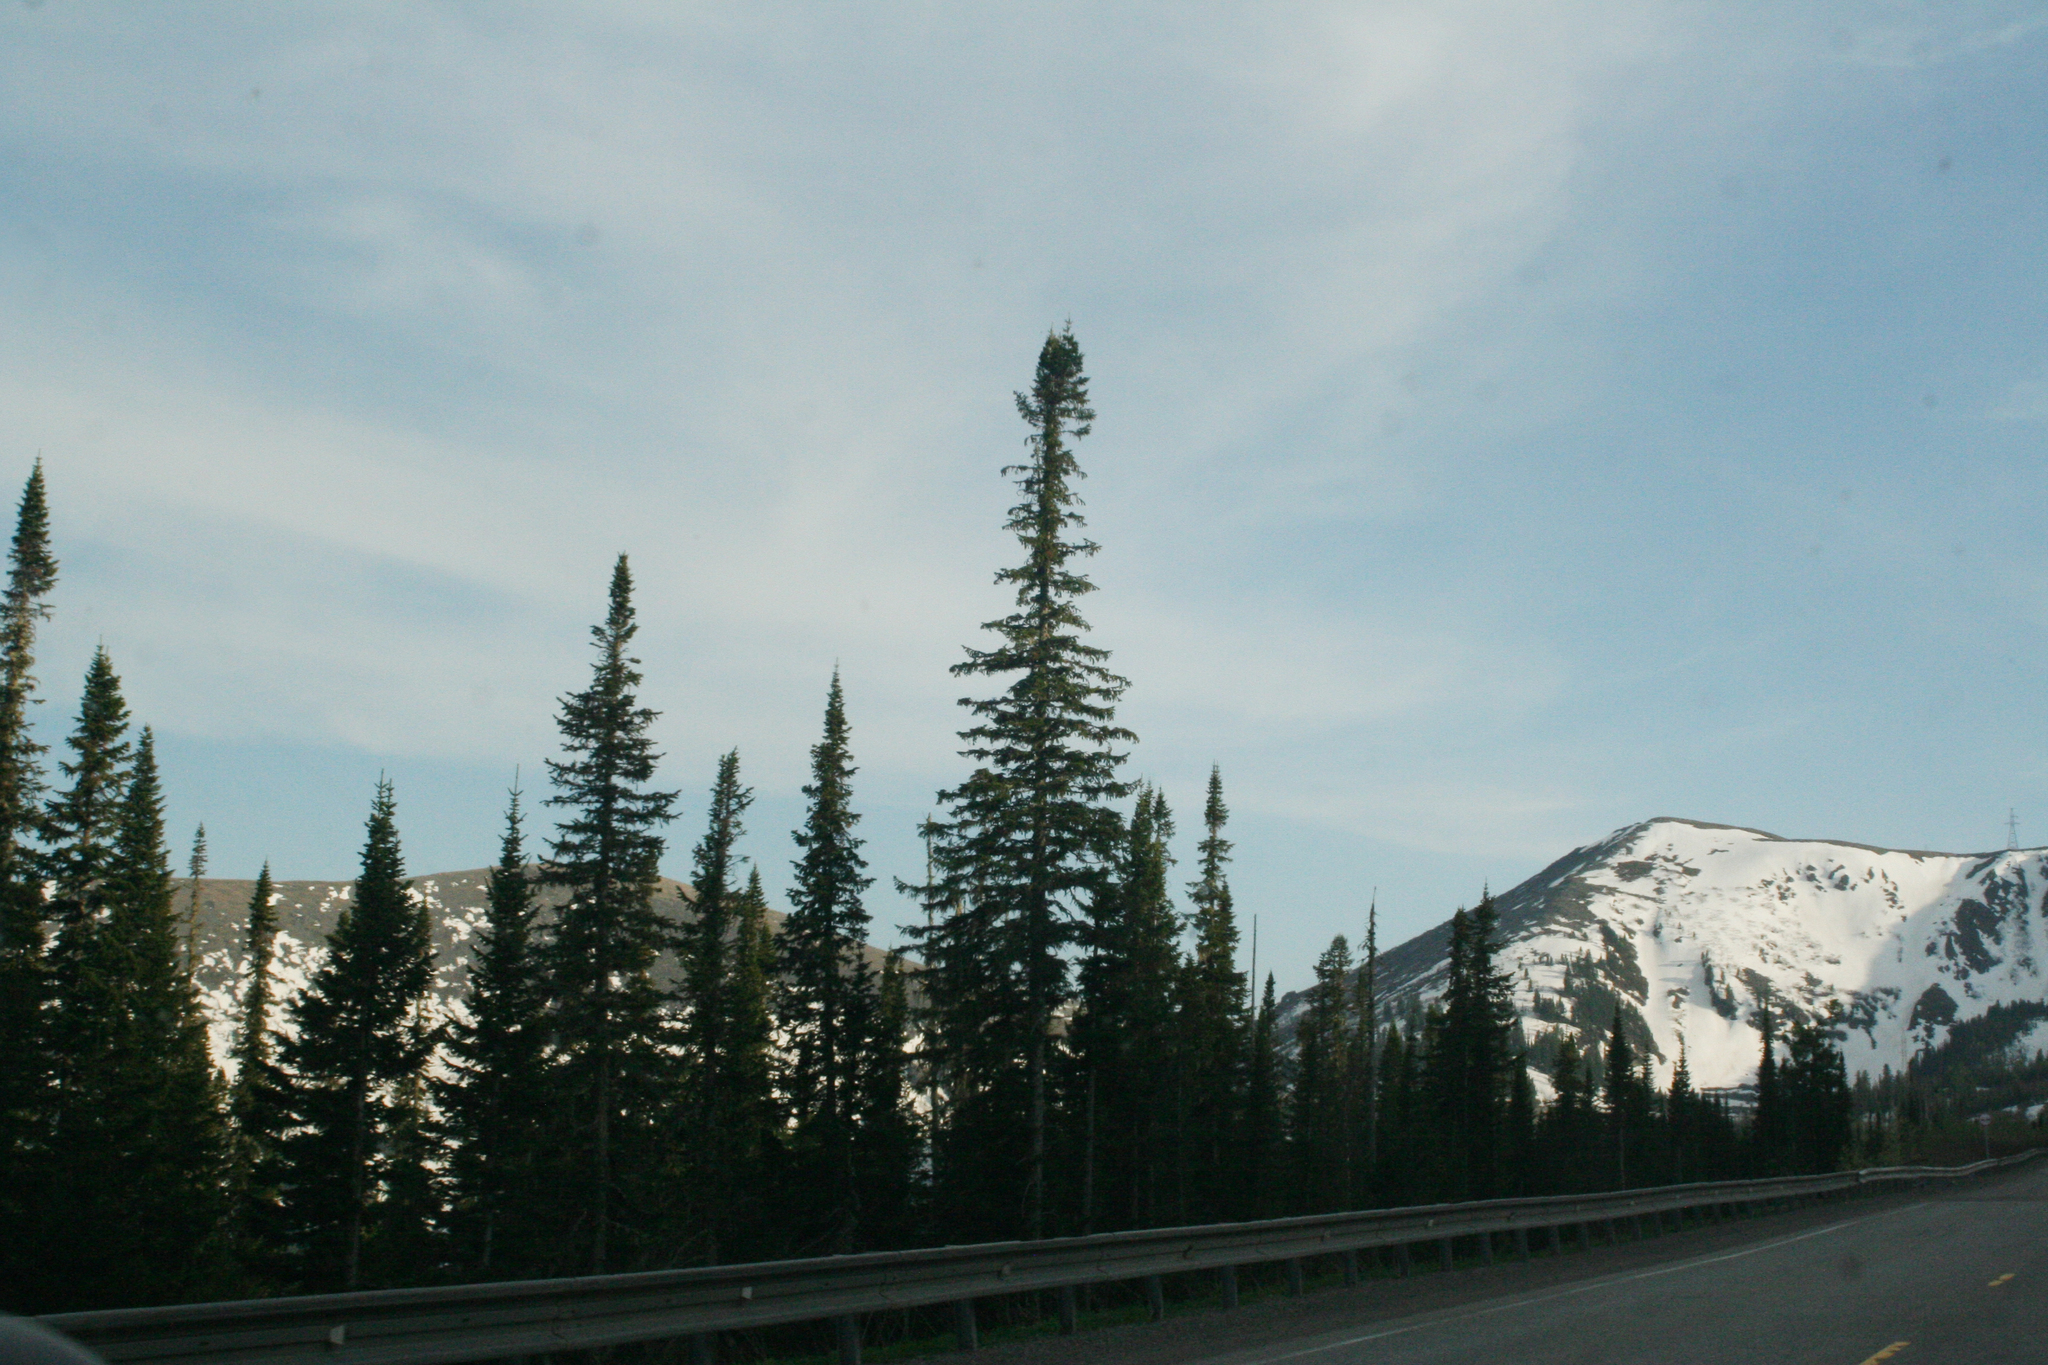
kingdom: Plantae
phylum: Tracheophyta
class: Pinopsida
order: Pinales
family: Pinaceae
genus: Abies
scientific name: Abies sibirica
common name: Siberian fir
